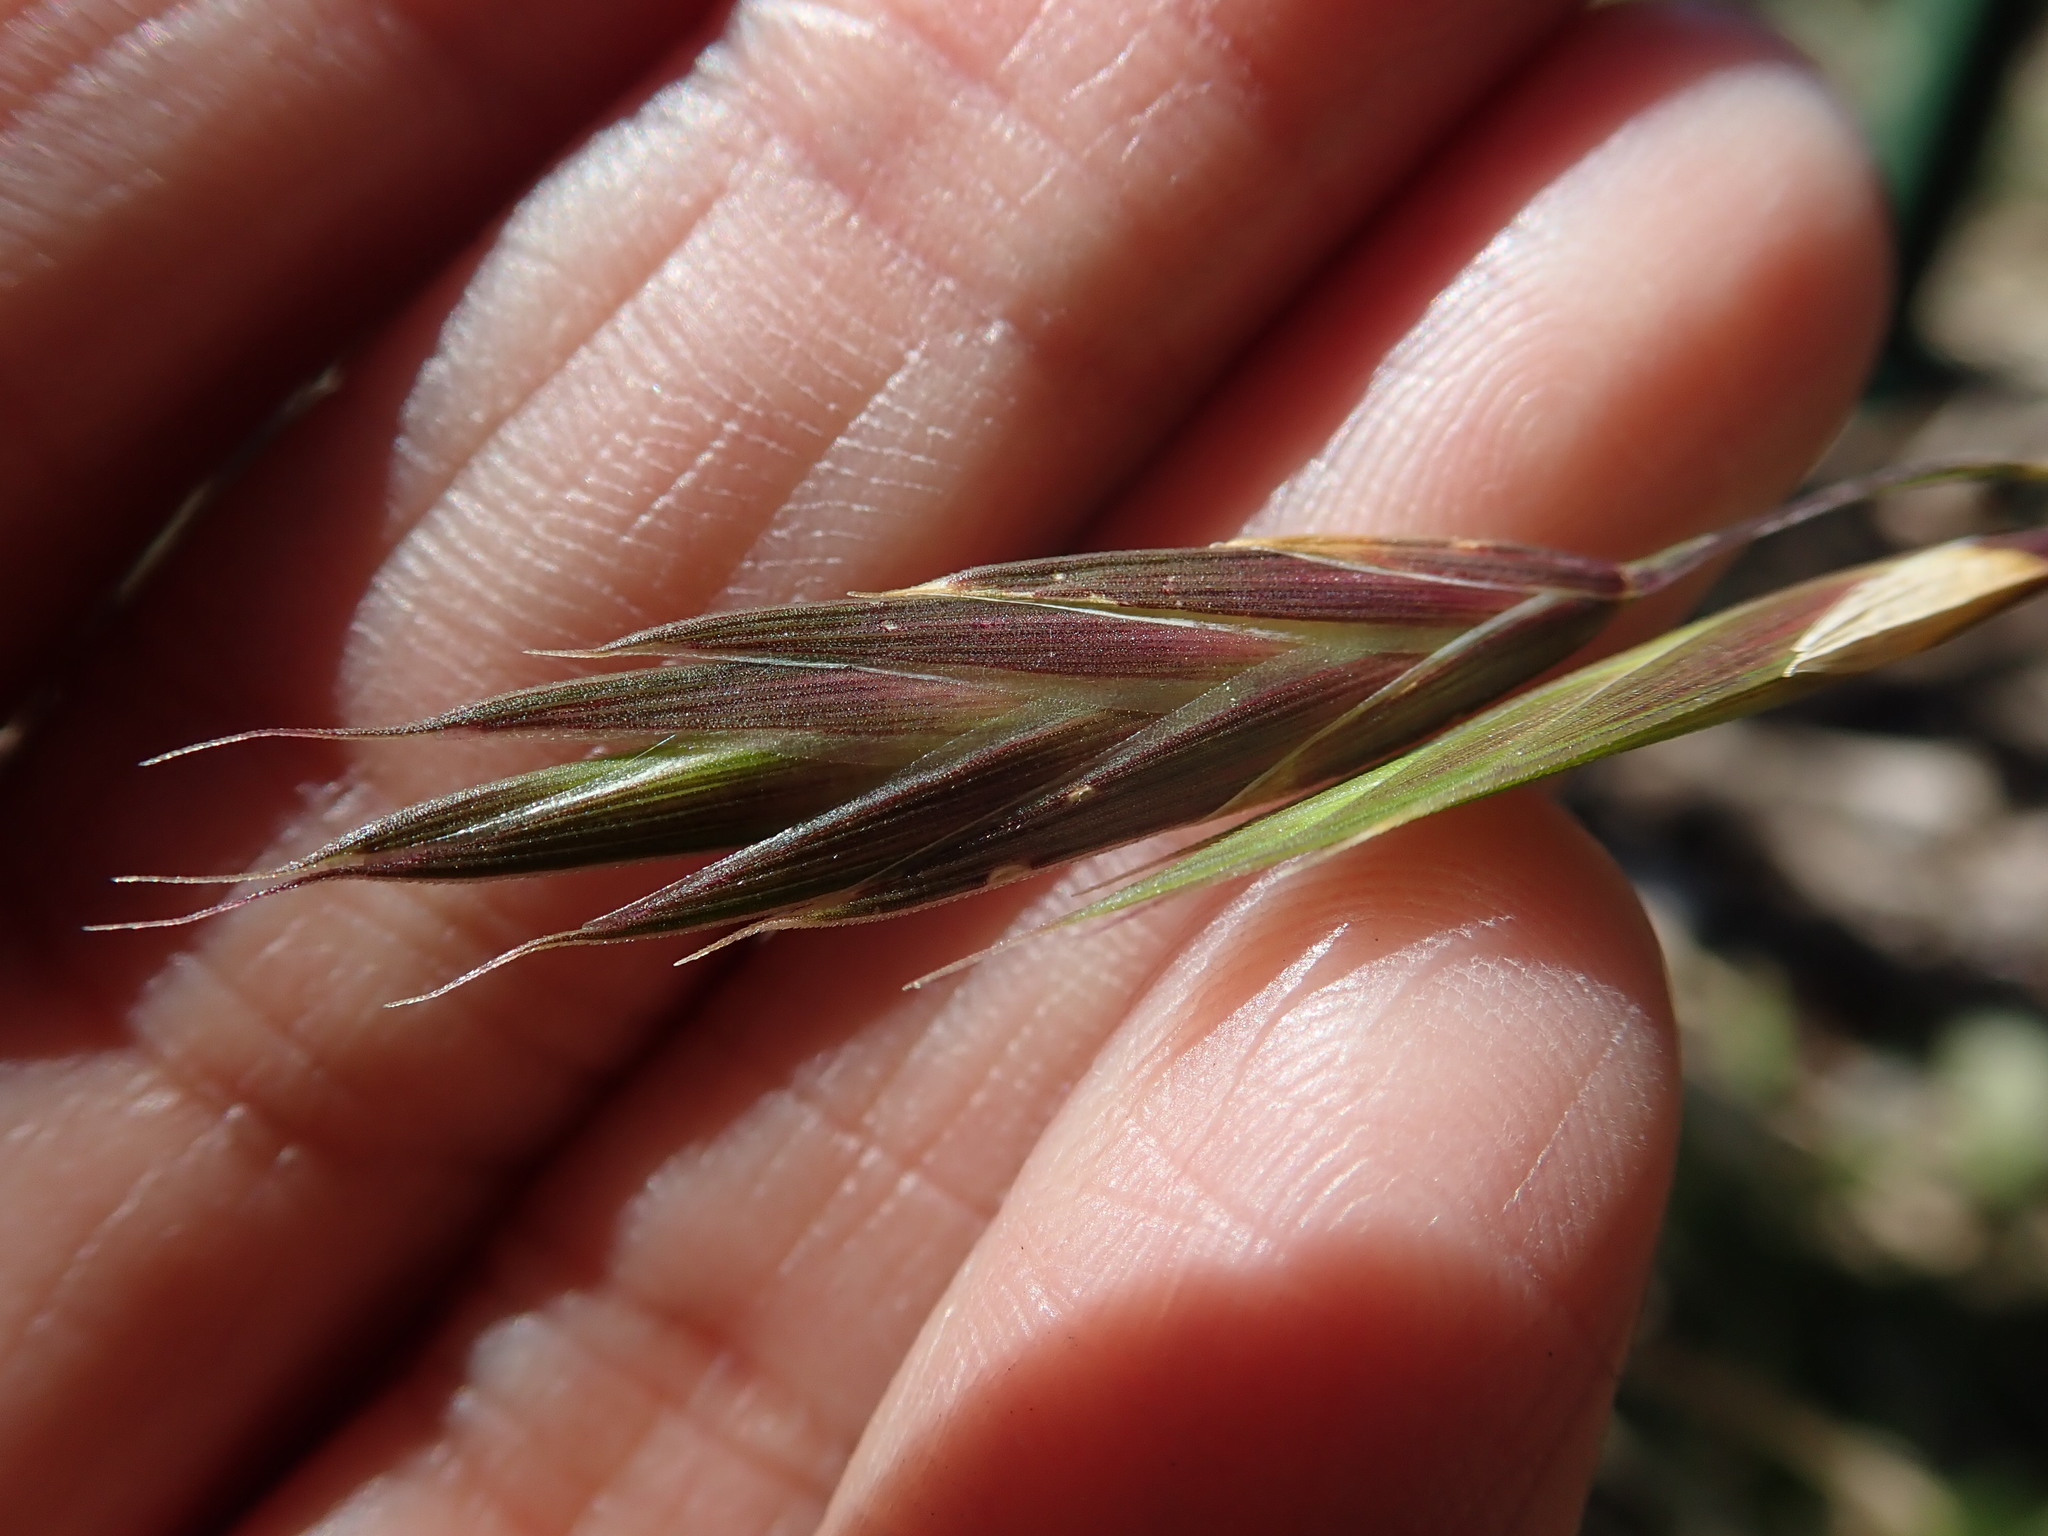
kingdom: Plantae
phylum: Tracheophyta
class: Liliopsida
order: Poales
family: Poaceae
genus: Bromus
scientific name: Bromus catharticus
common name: Rescuegrass
